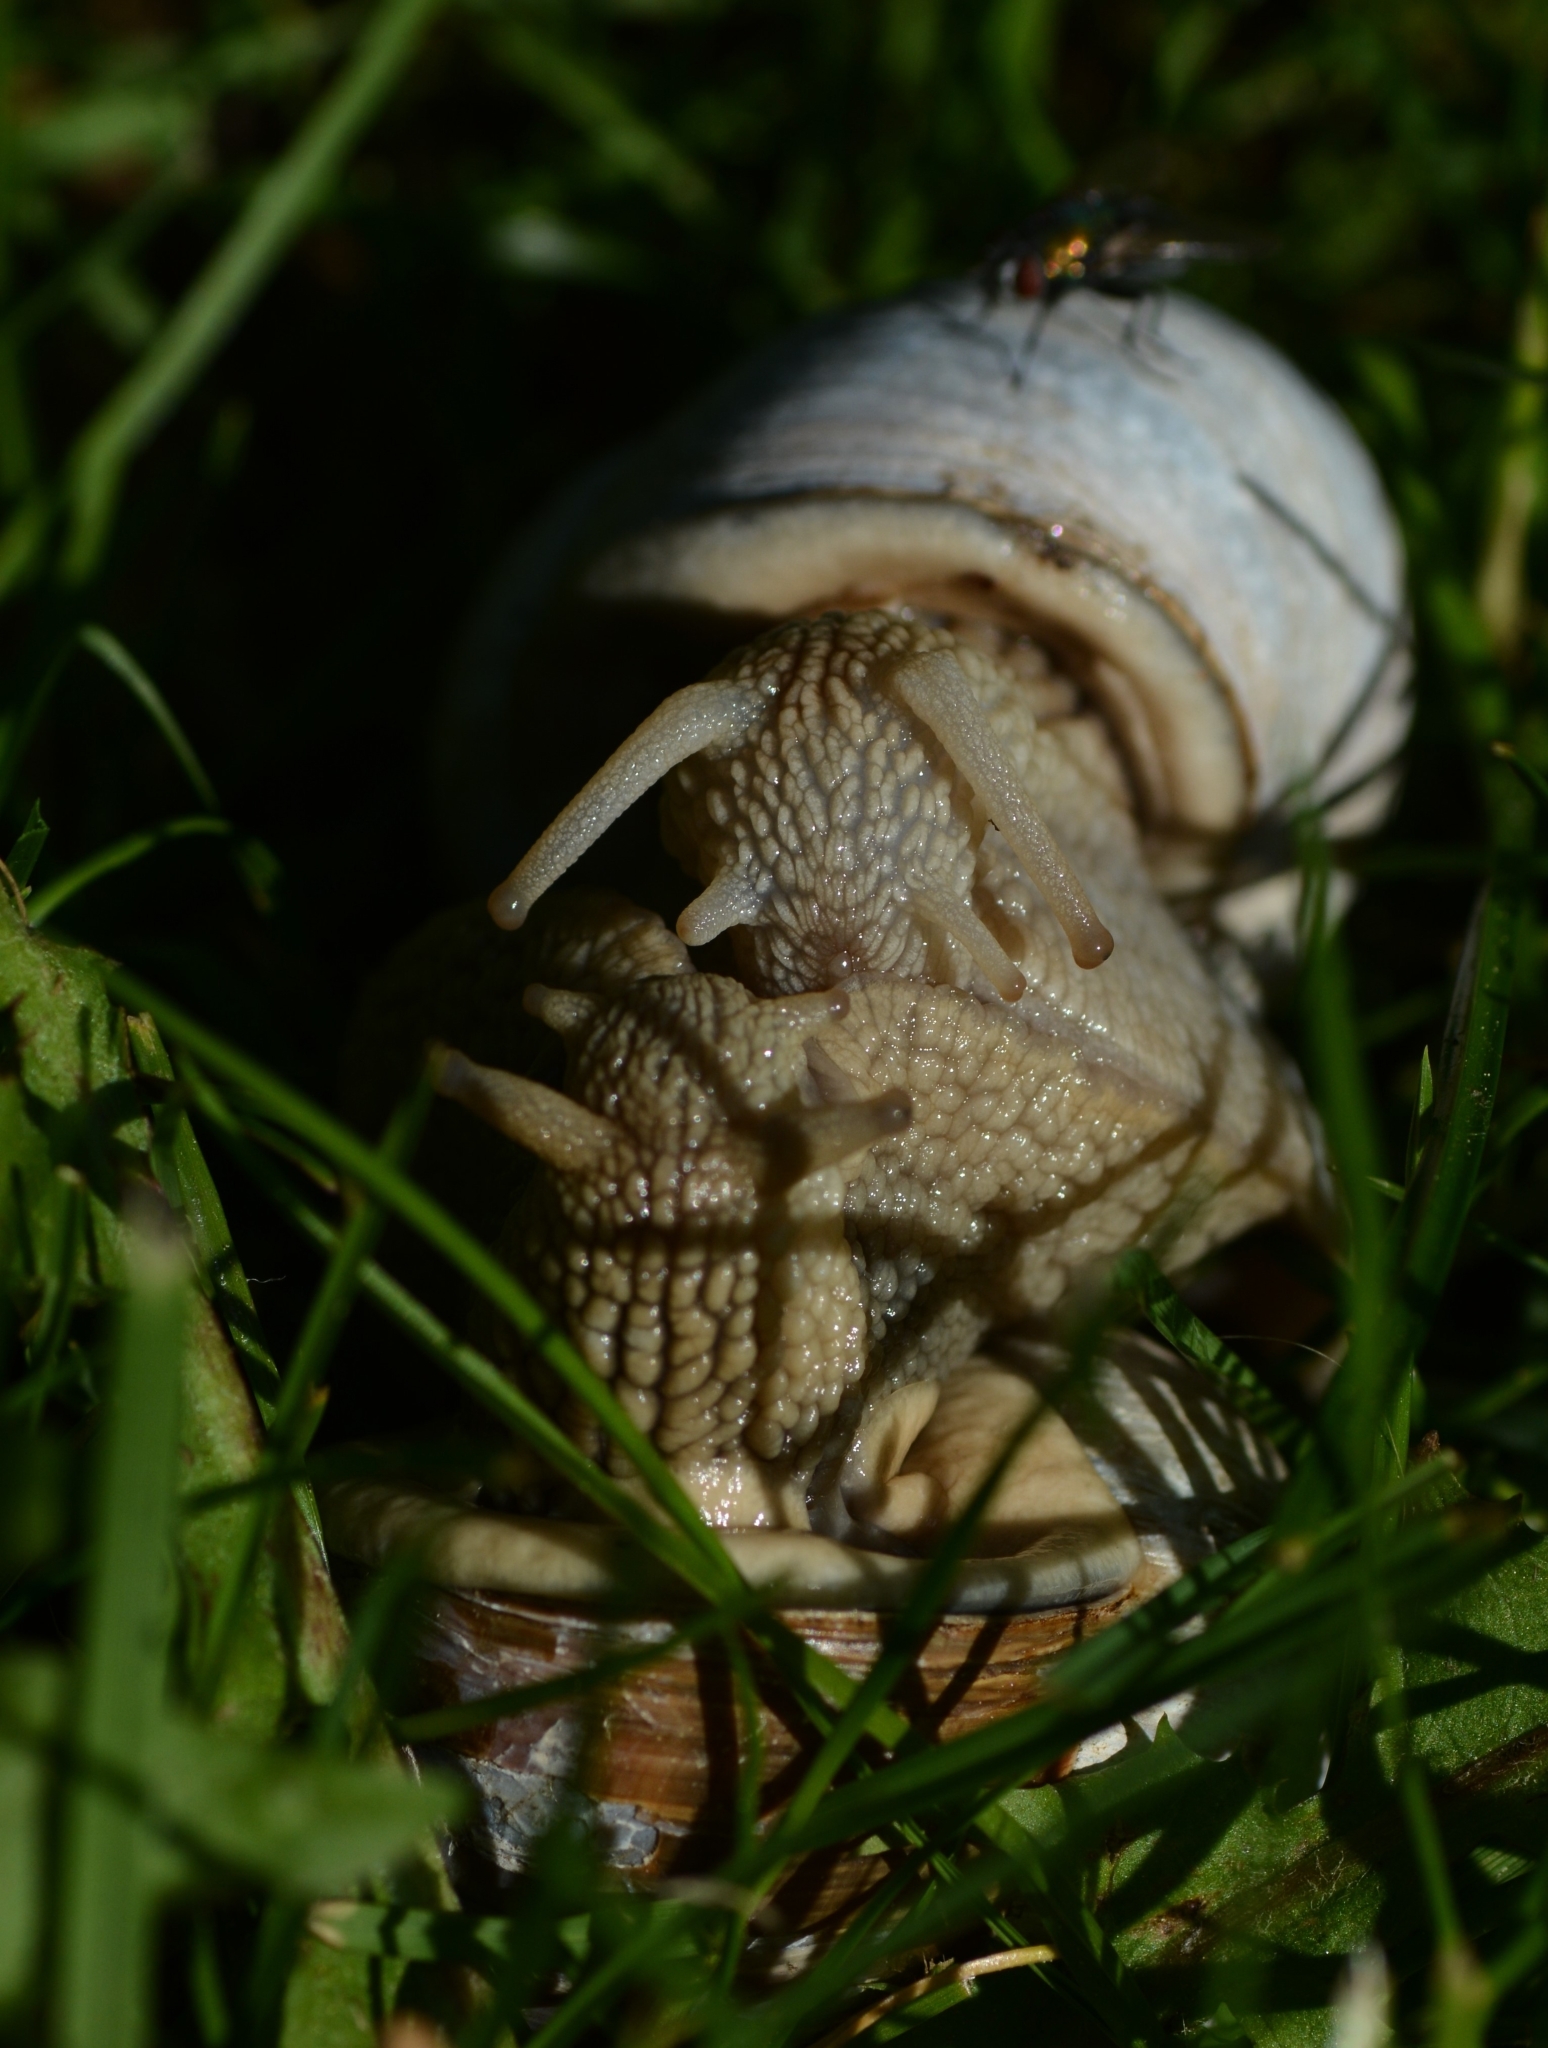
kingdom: Animalia
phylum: Mollusca
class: Gastropoda
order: Stylommatophora
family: Helicidae
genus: Helix
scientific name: Helix pomatia
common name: Roman snail
